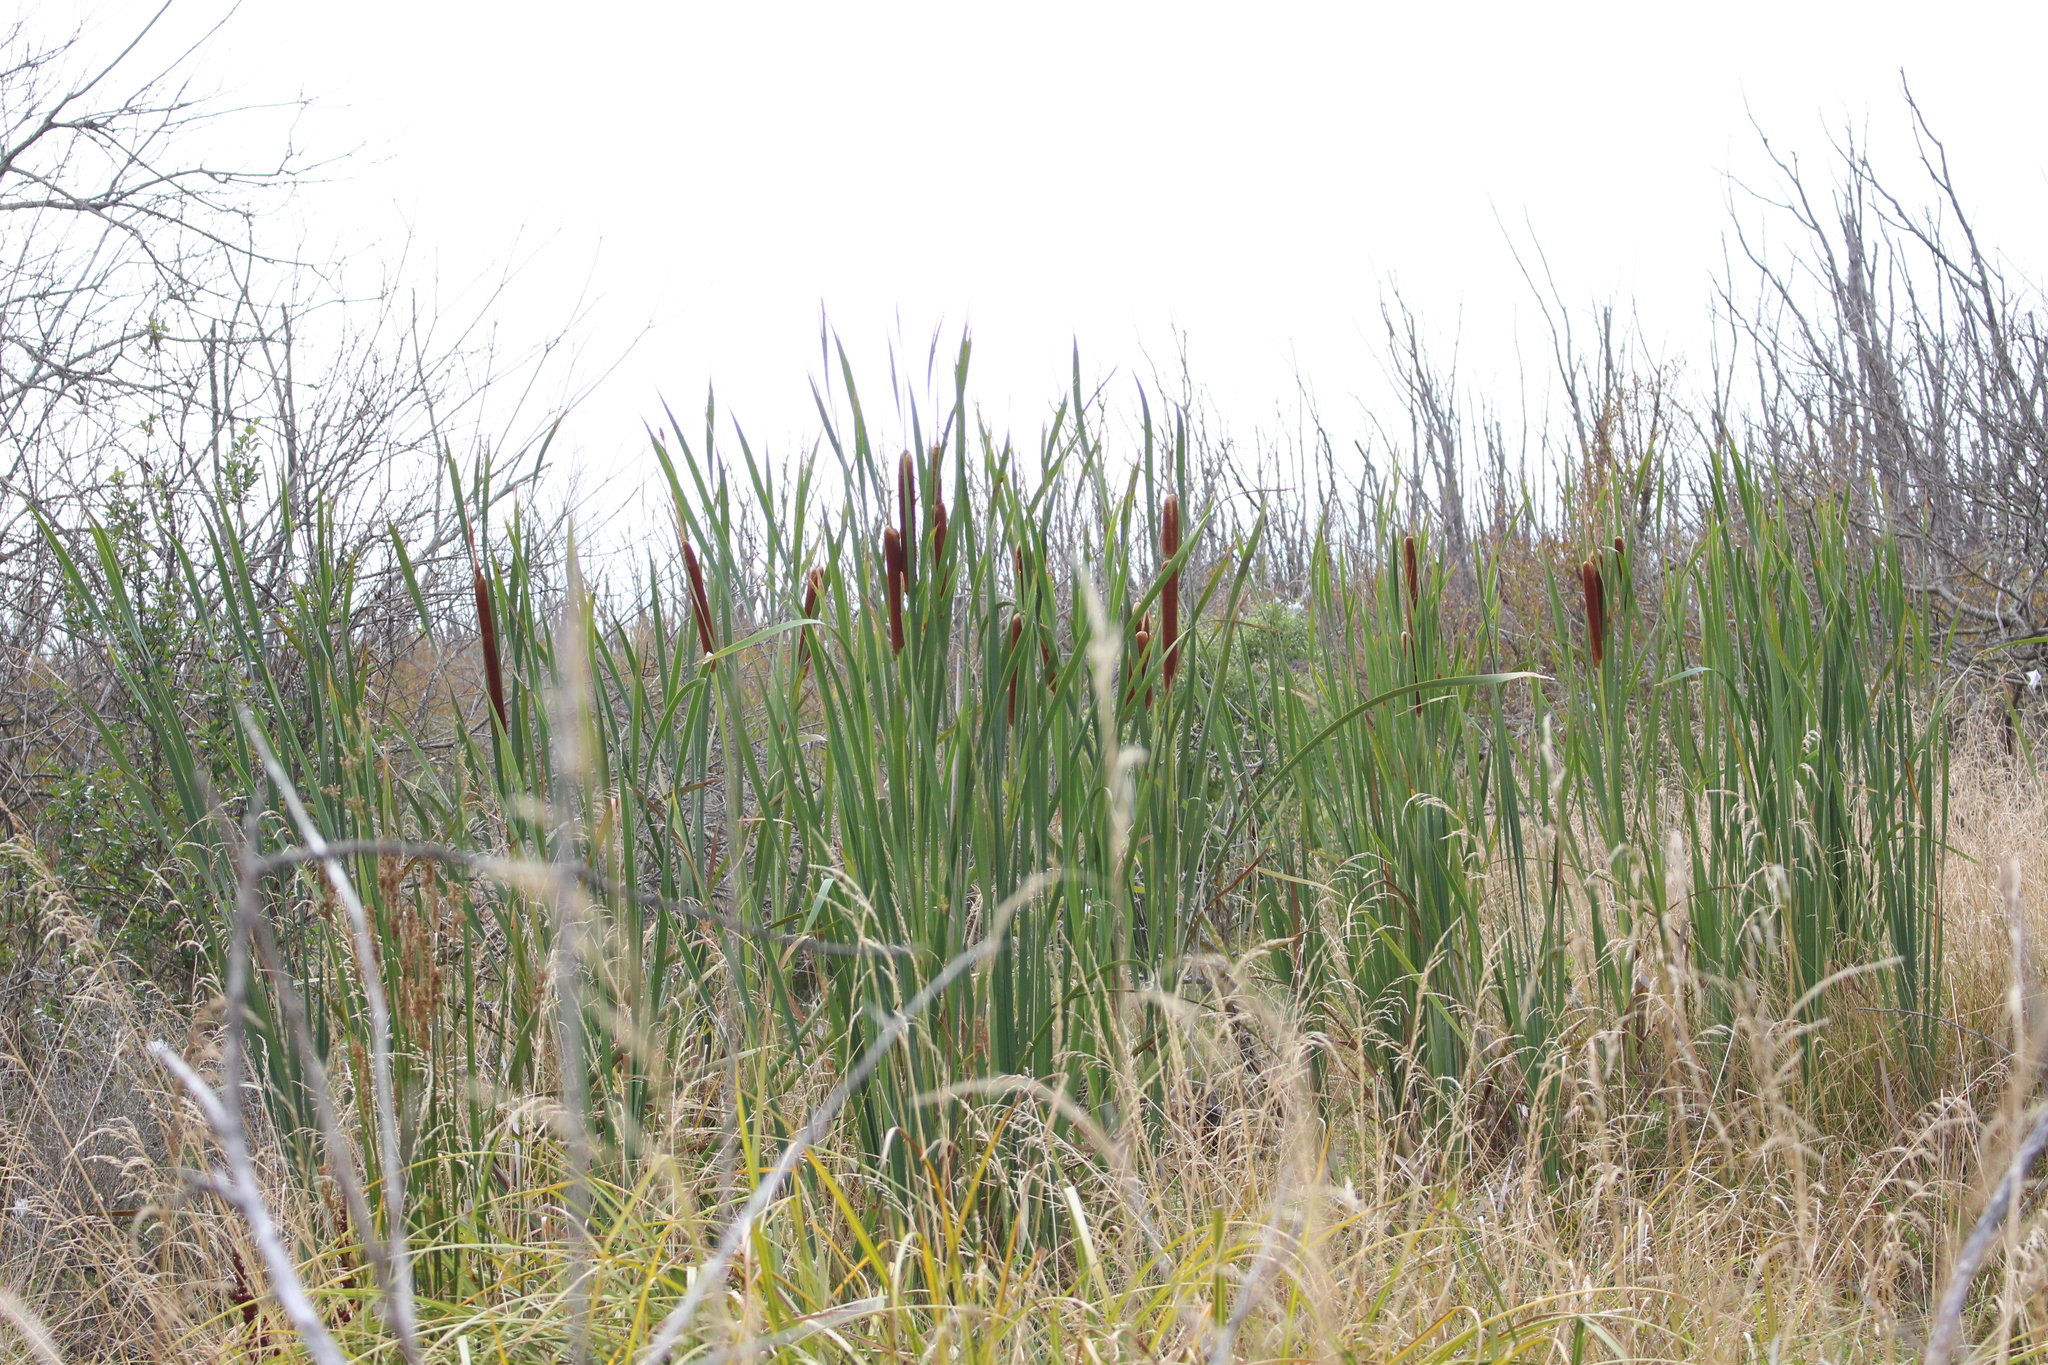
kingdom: Plantae
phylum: Tracheophyta
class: Liliopsida
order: Poales
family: Typhaceae
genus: Typha
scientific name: Typha orientalis
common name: Bullrush
